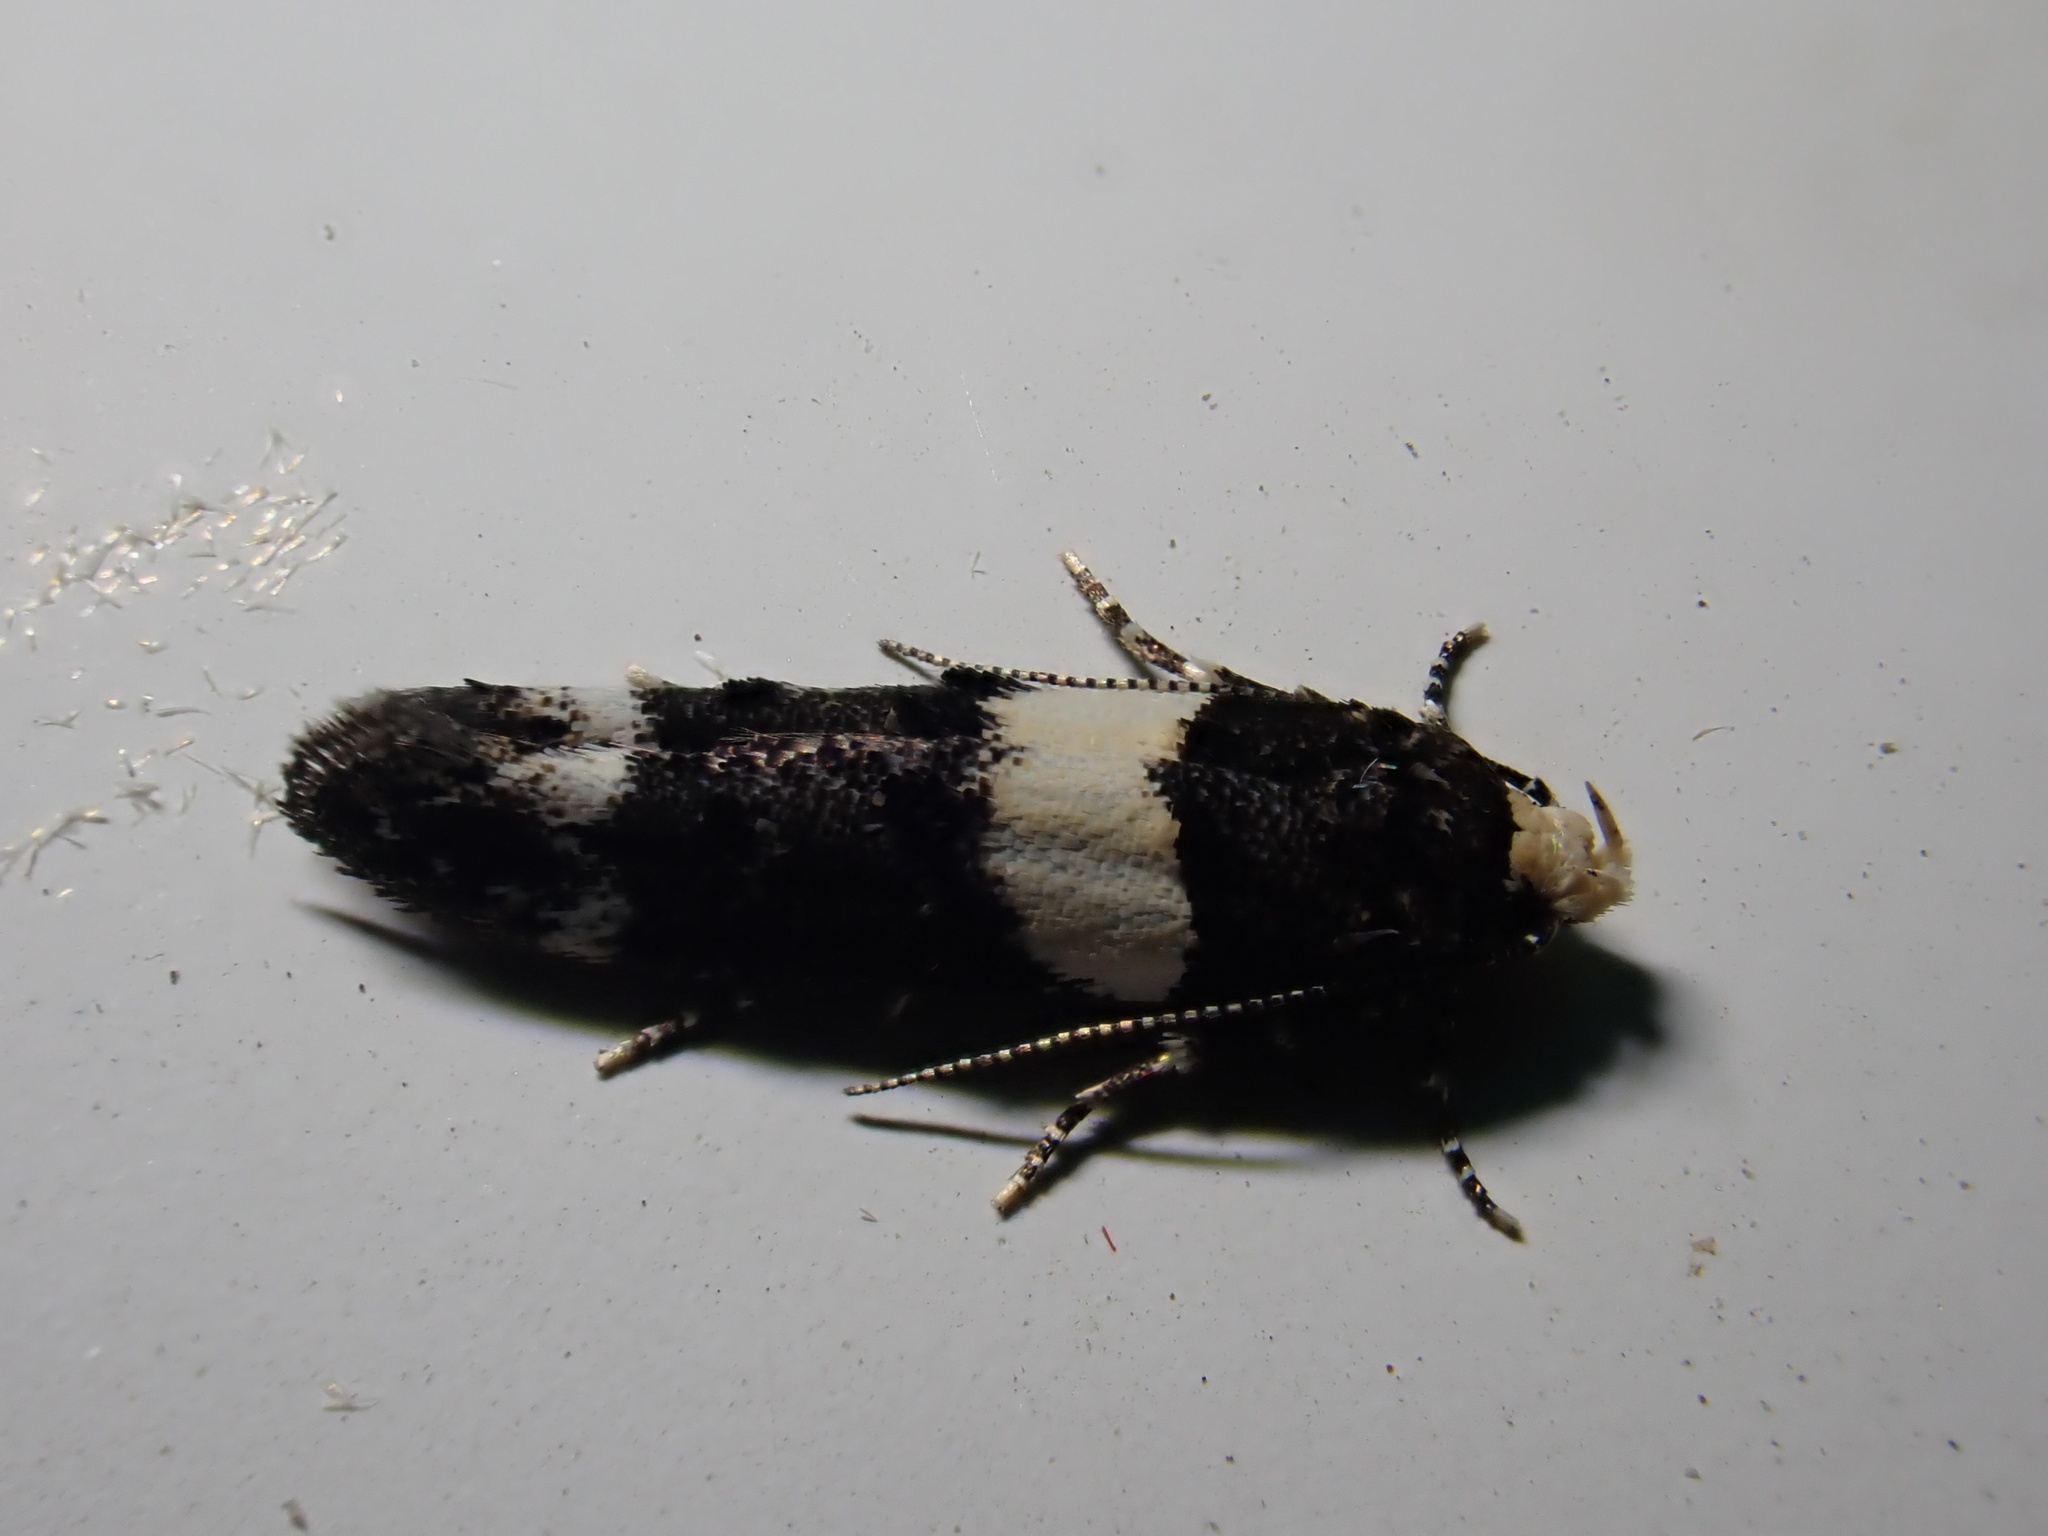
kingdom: Animalia
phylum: Arthropoda
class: Insecta
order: Lepidoptera
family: Gelechiidae
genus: Recurvaria
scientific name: Recurvaria leucatella
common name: White-barred groundling
